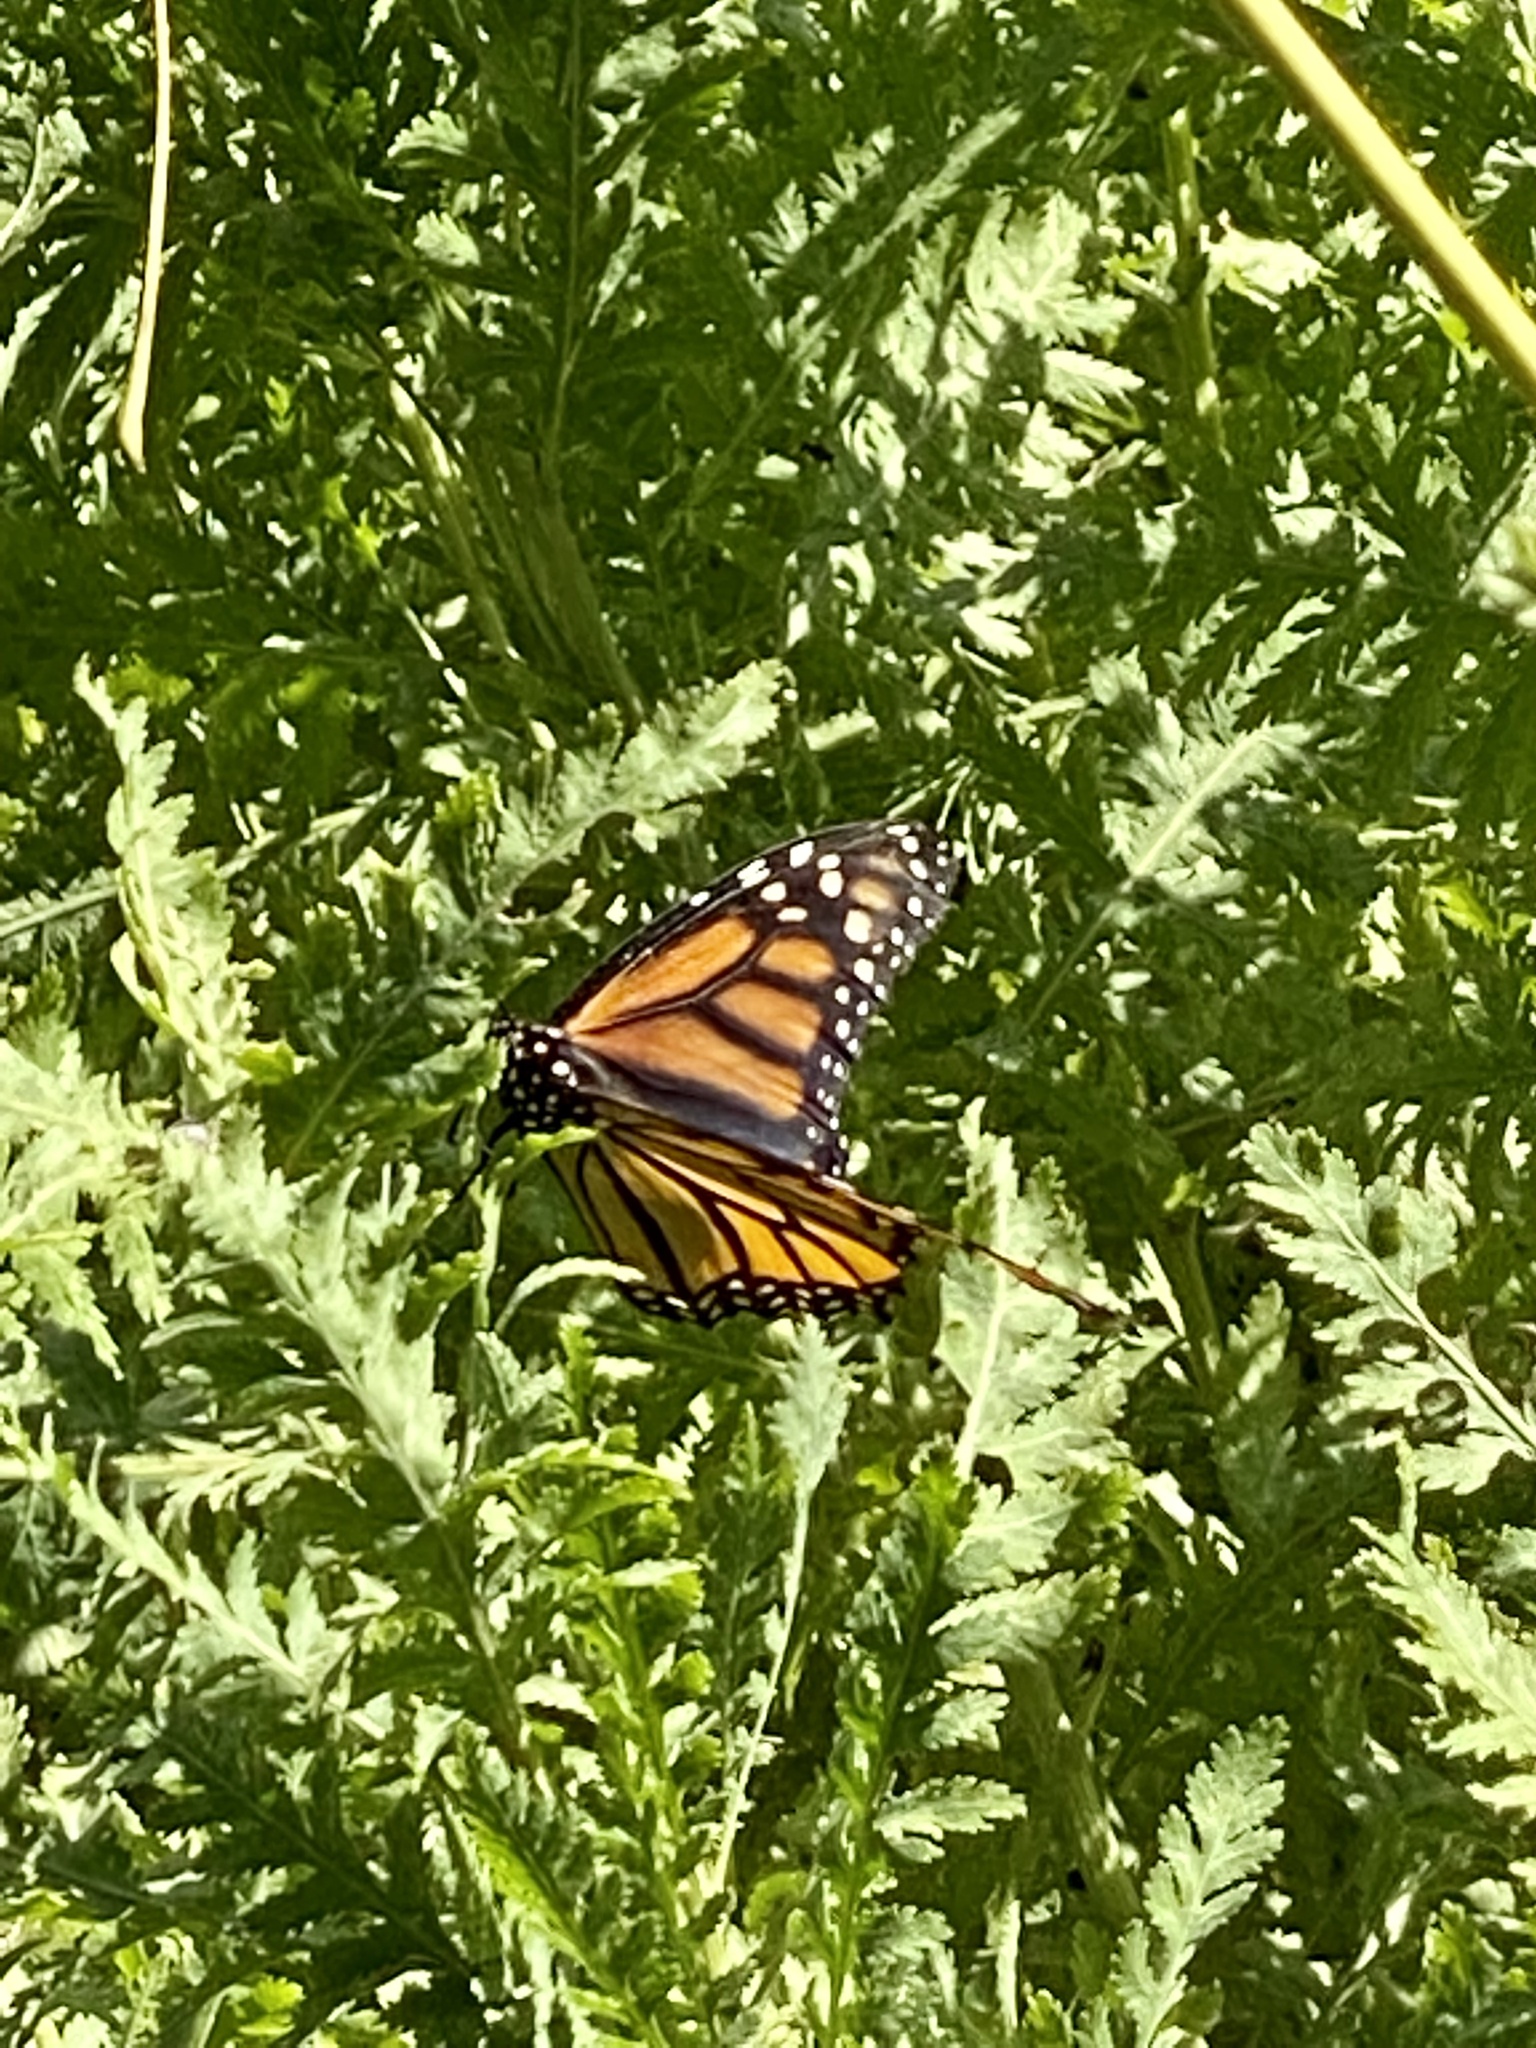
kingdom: Animalia
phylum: Arthropoda
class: Insecta
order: Lepidoptera
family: Nymphalidae
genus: Danaus
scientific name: Danaus plexippus
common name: Monarch
